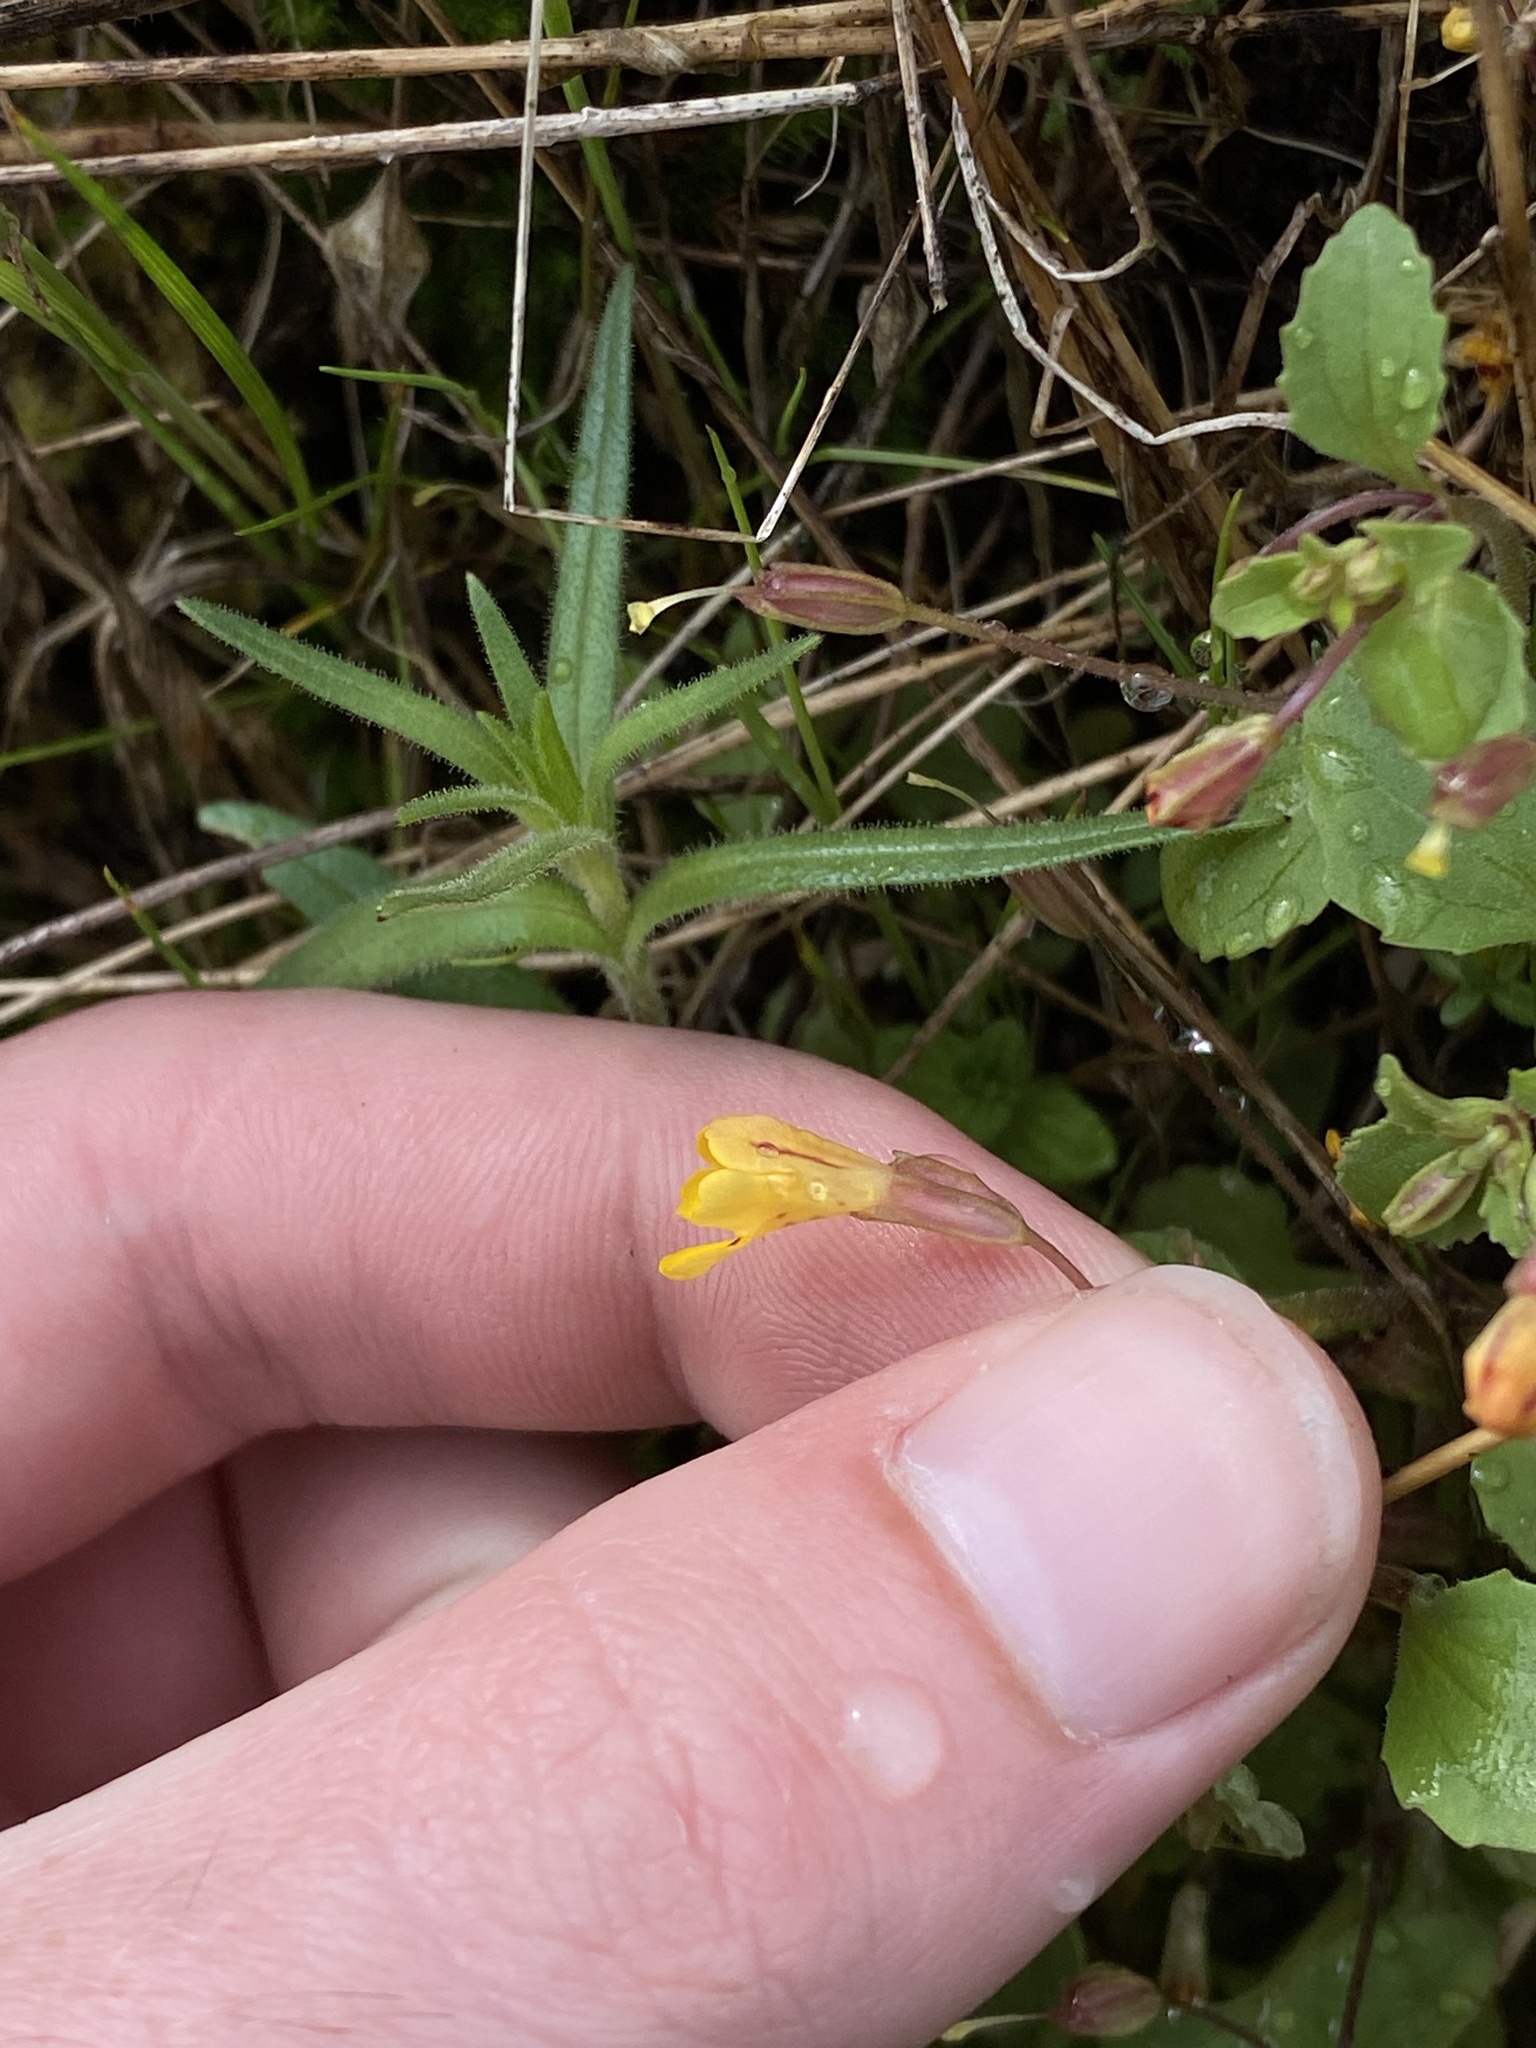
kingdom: Plantae
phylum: Tracheophyta
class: Magnoliopsida
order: Lamiales
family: Phrymaceae
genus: Erythranthe
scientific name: Erythranthe alsinoides
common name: Chickweed monkeyflower
